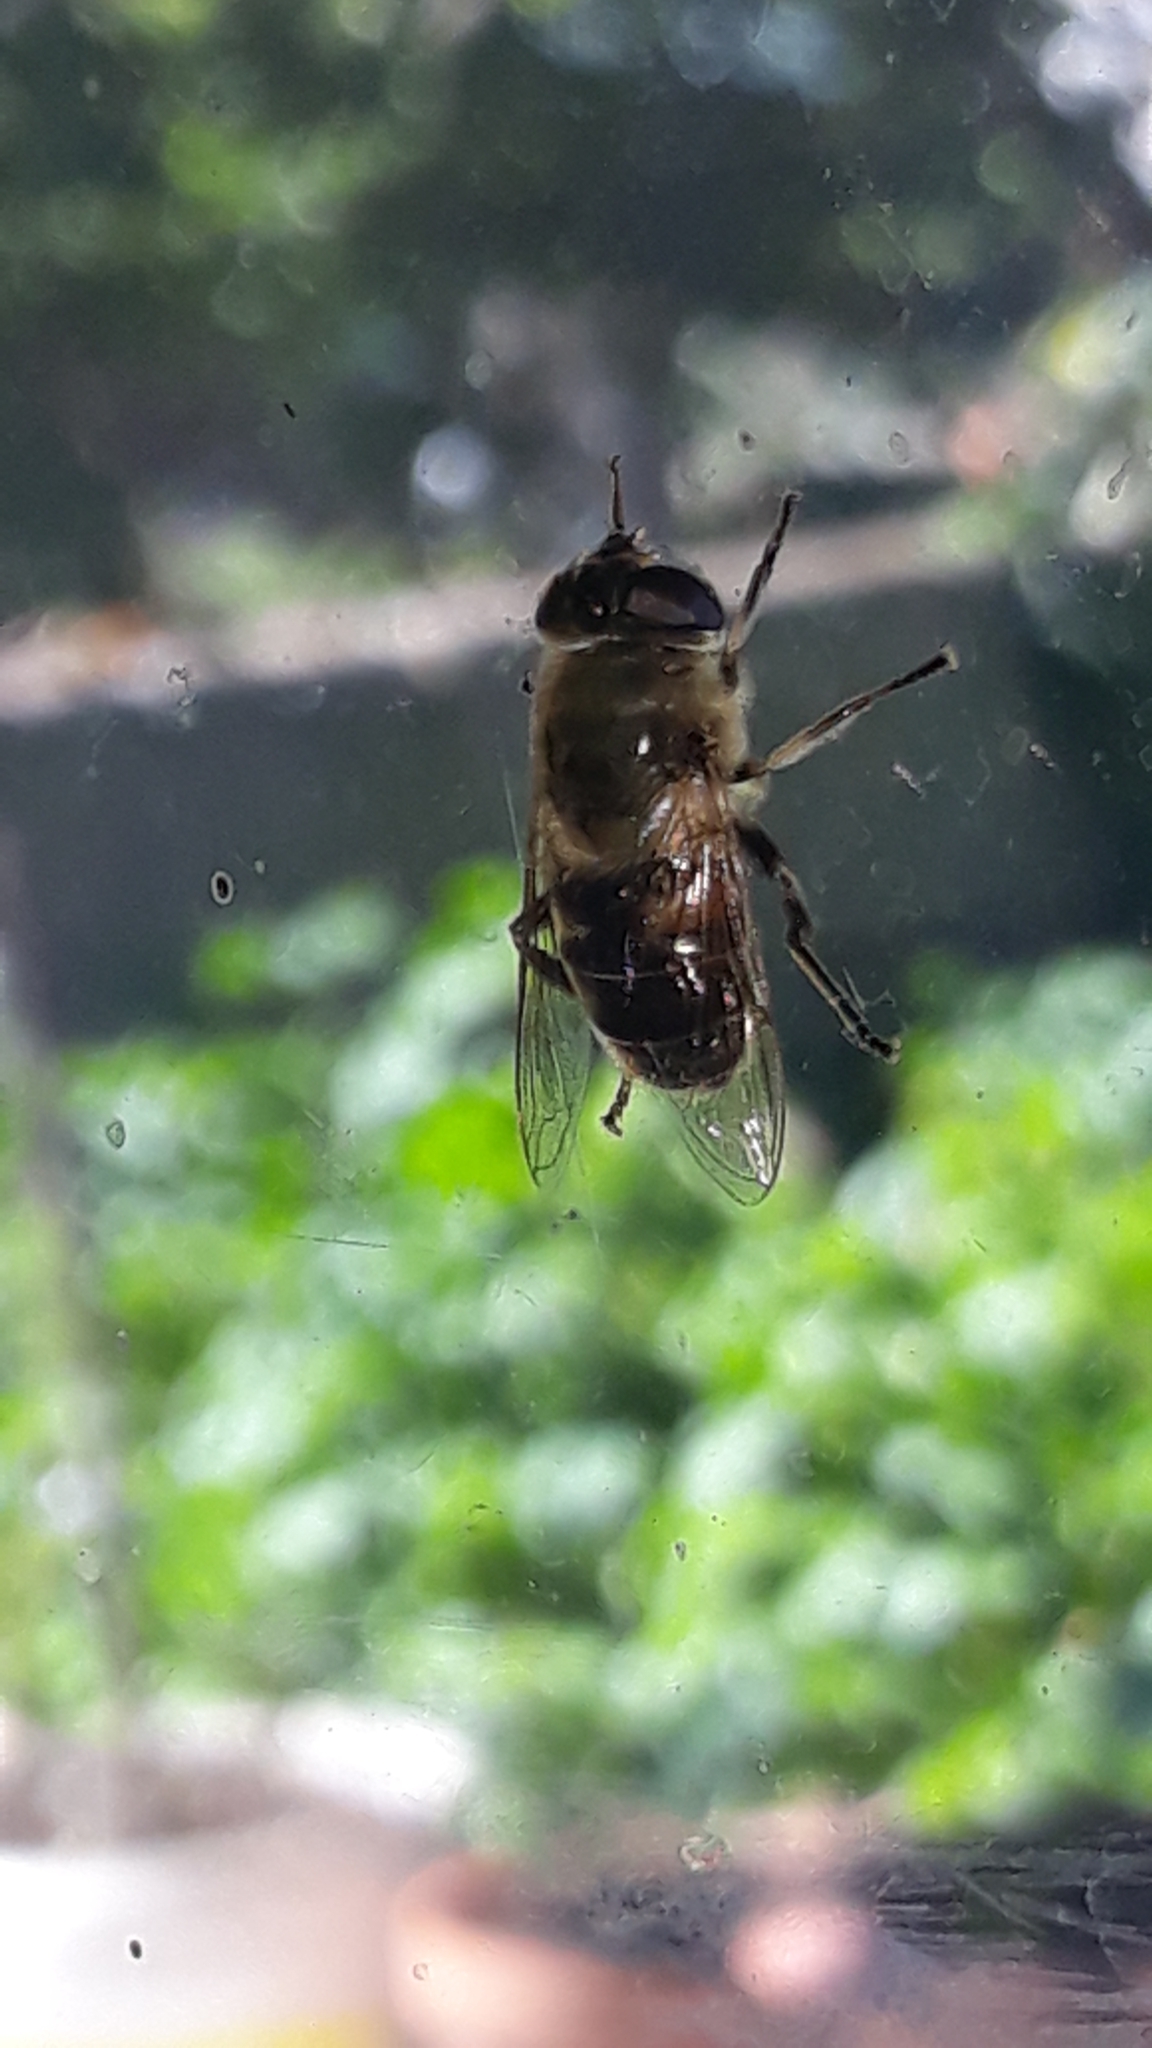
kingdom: Animalia
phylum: Arthropoda
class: Insecta
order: Diptera
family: Syrphidae
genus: Eristalis
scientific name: Eristalis tenax
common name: Drone fly
